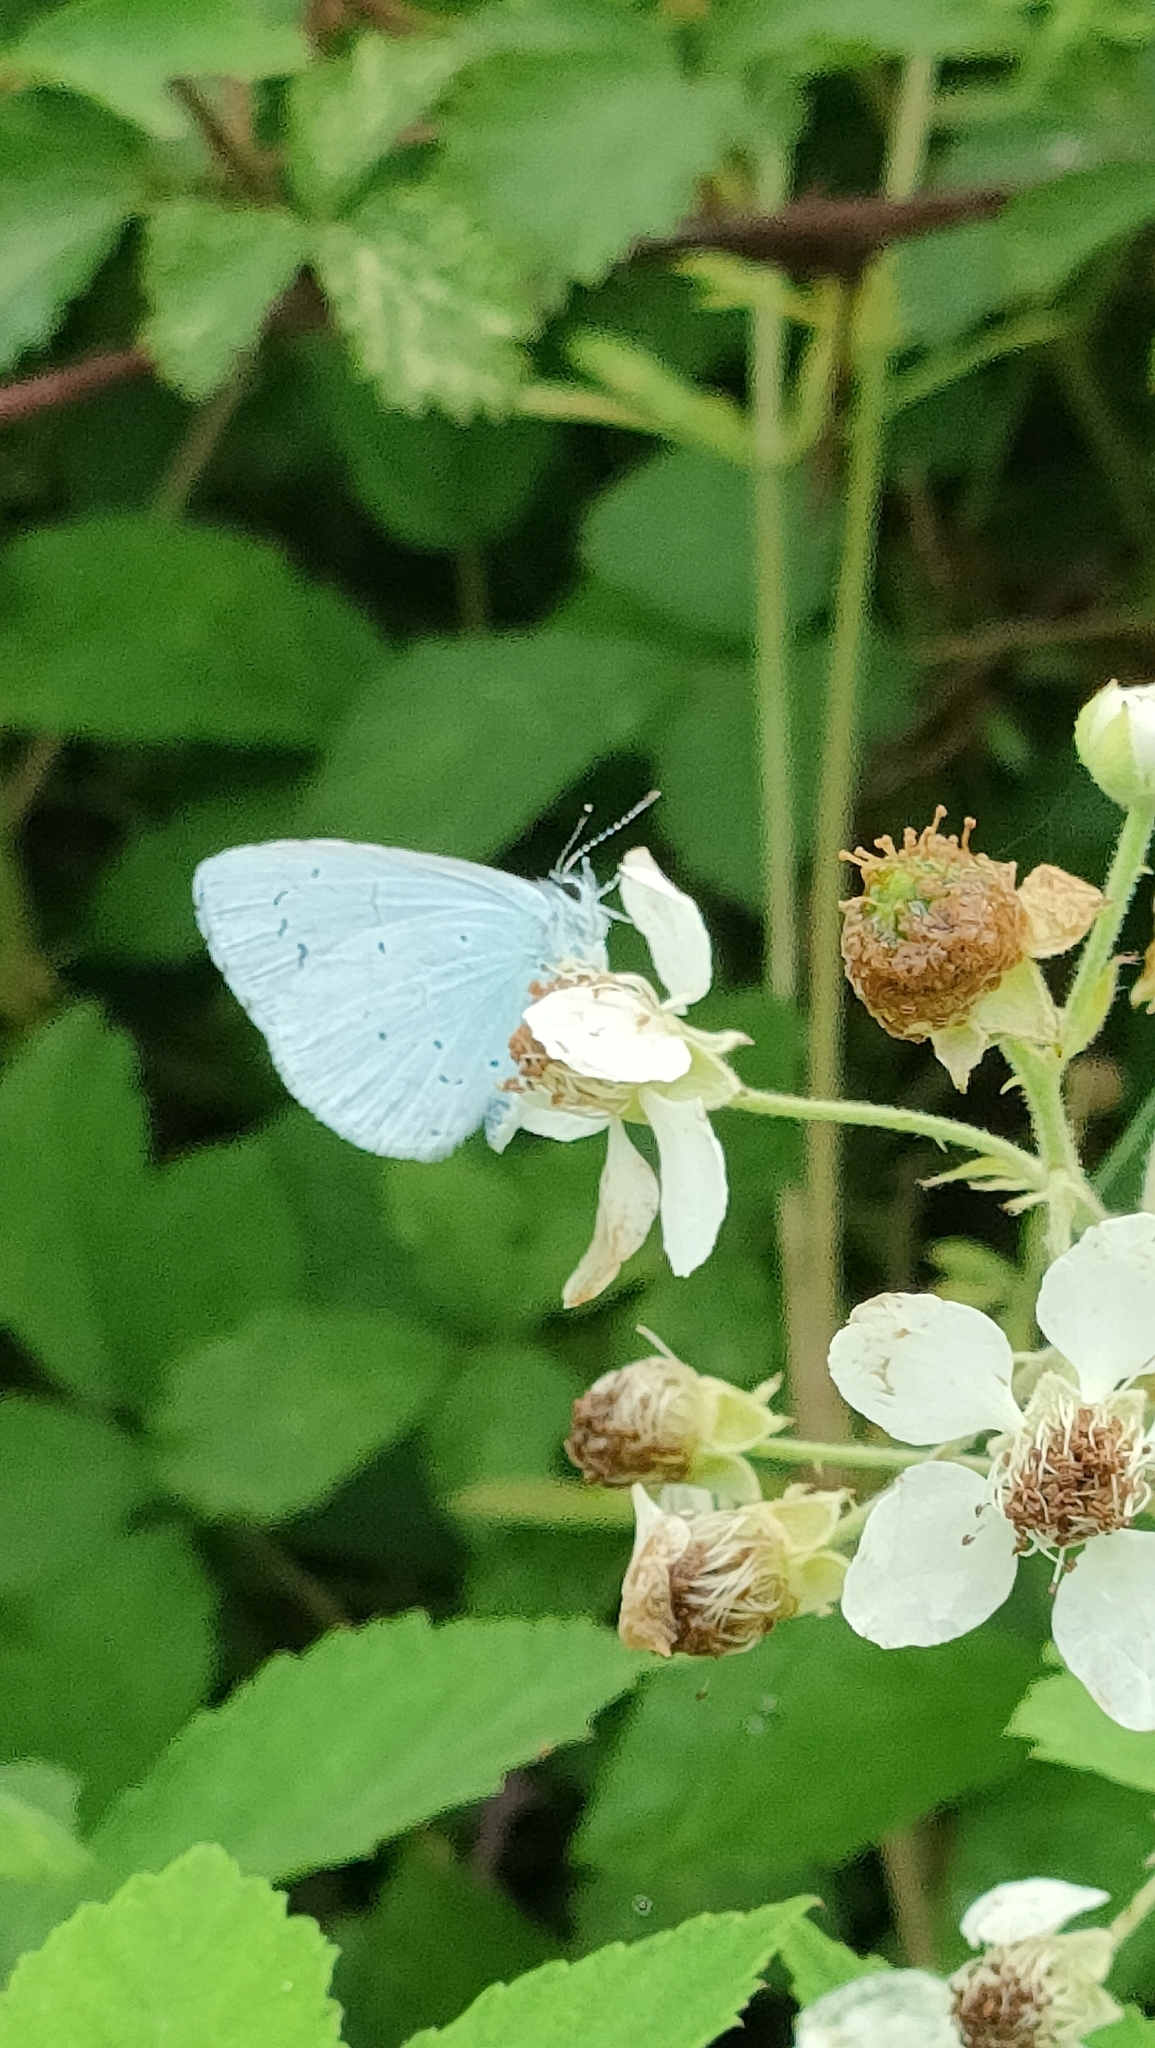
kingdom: Animalia
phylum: Arthropoda
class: Insecta
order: Lepidoptera
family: Lycaenidae
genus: Celastrina
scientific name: Celastrina argiolus
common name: Holly blue
